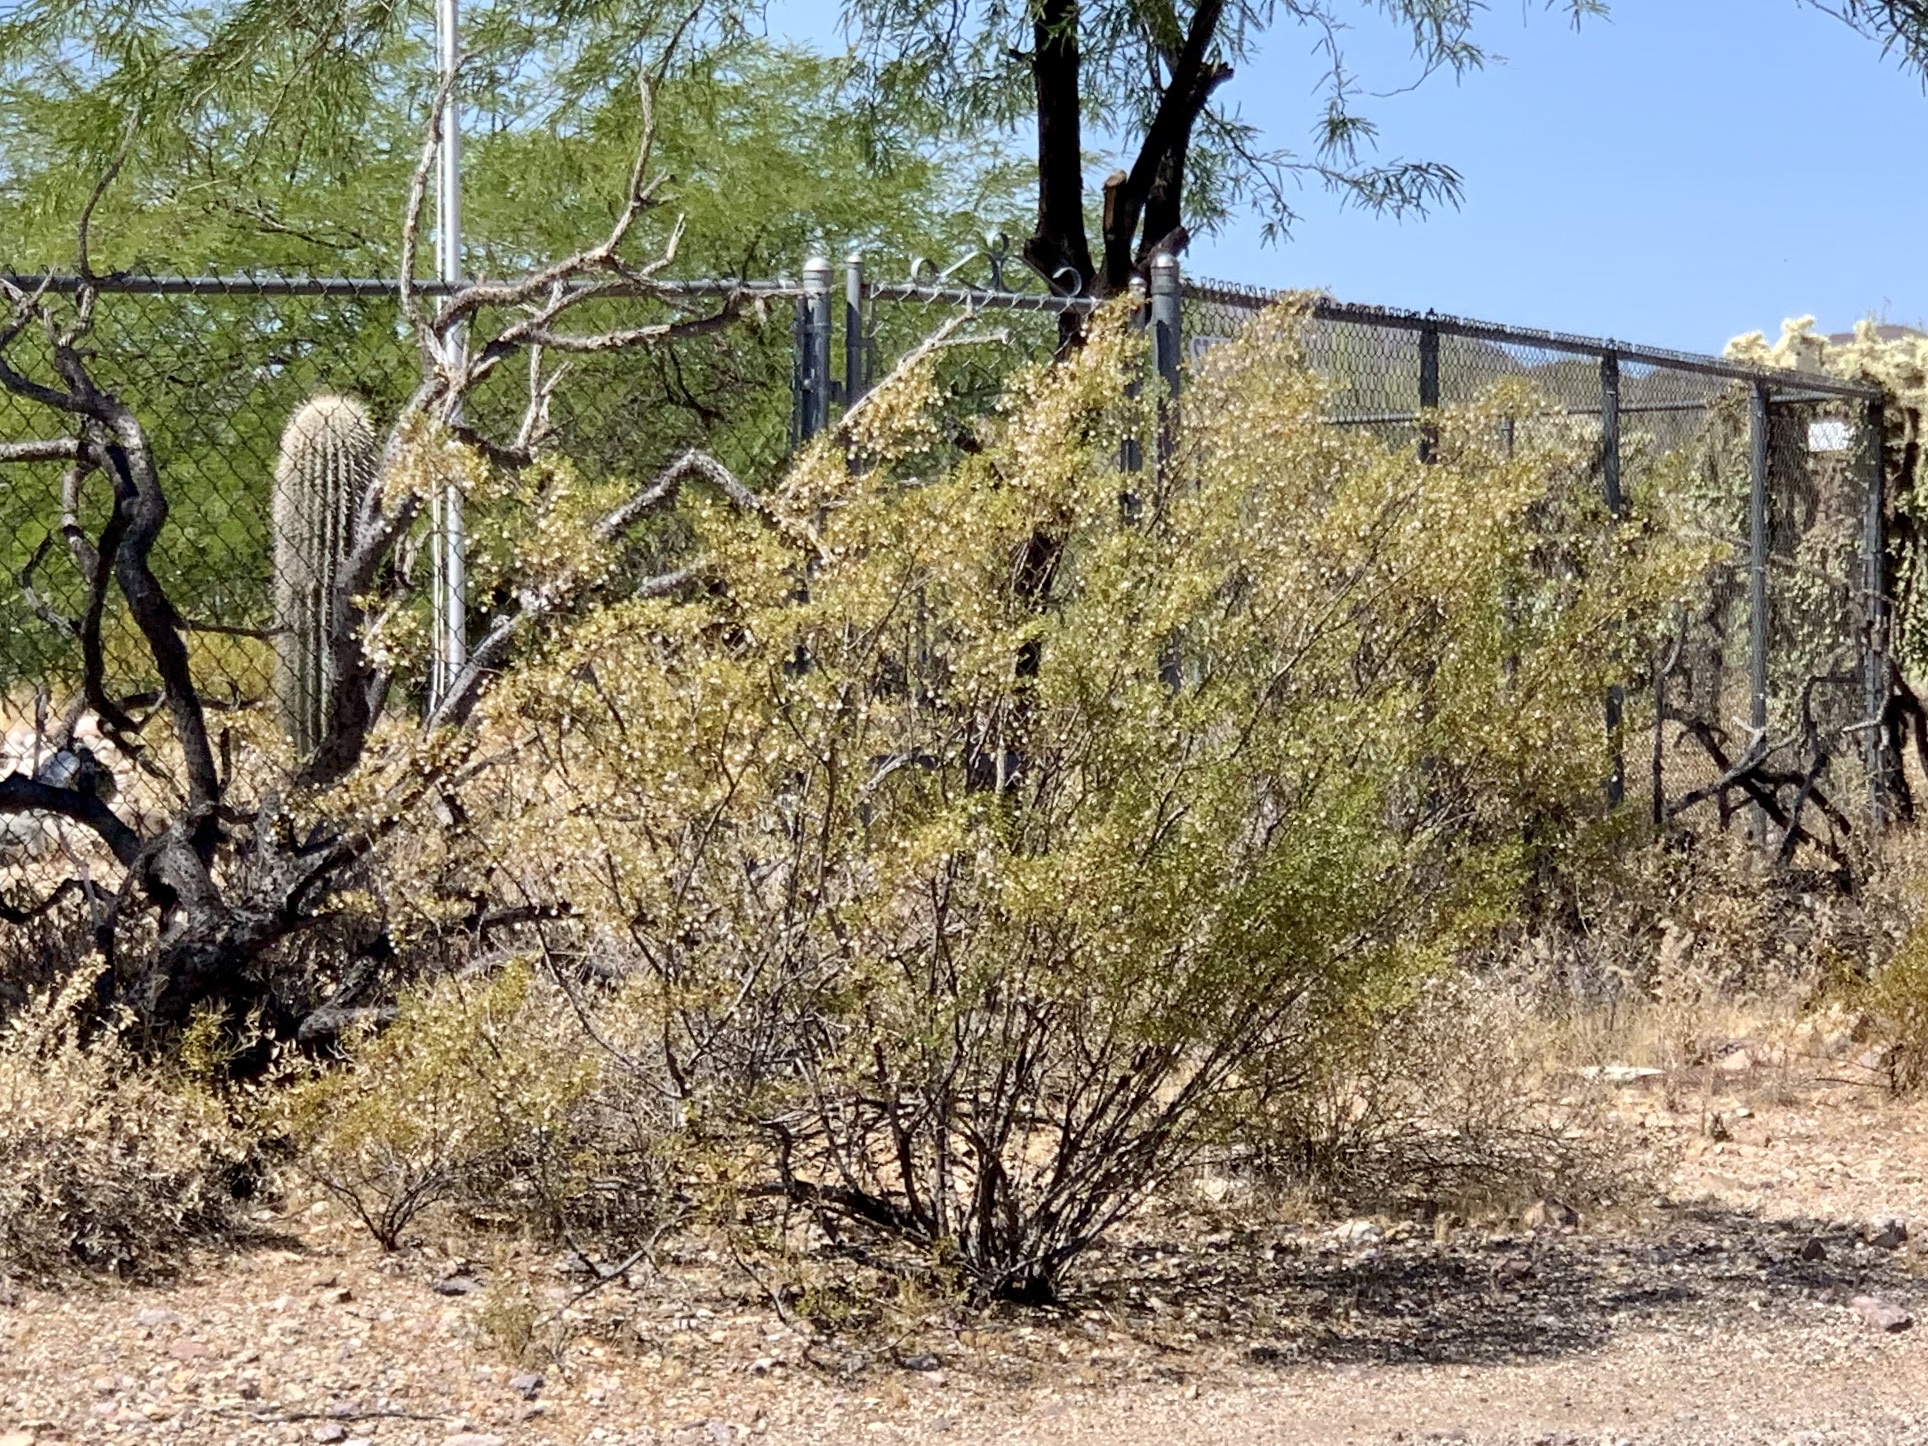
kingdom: Plantae
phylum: Tracheophyta
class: Magnoliopsida
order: Zygophyllales
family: Zygophyllaceae
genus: Larrea
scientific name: Larrea tridentata
